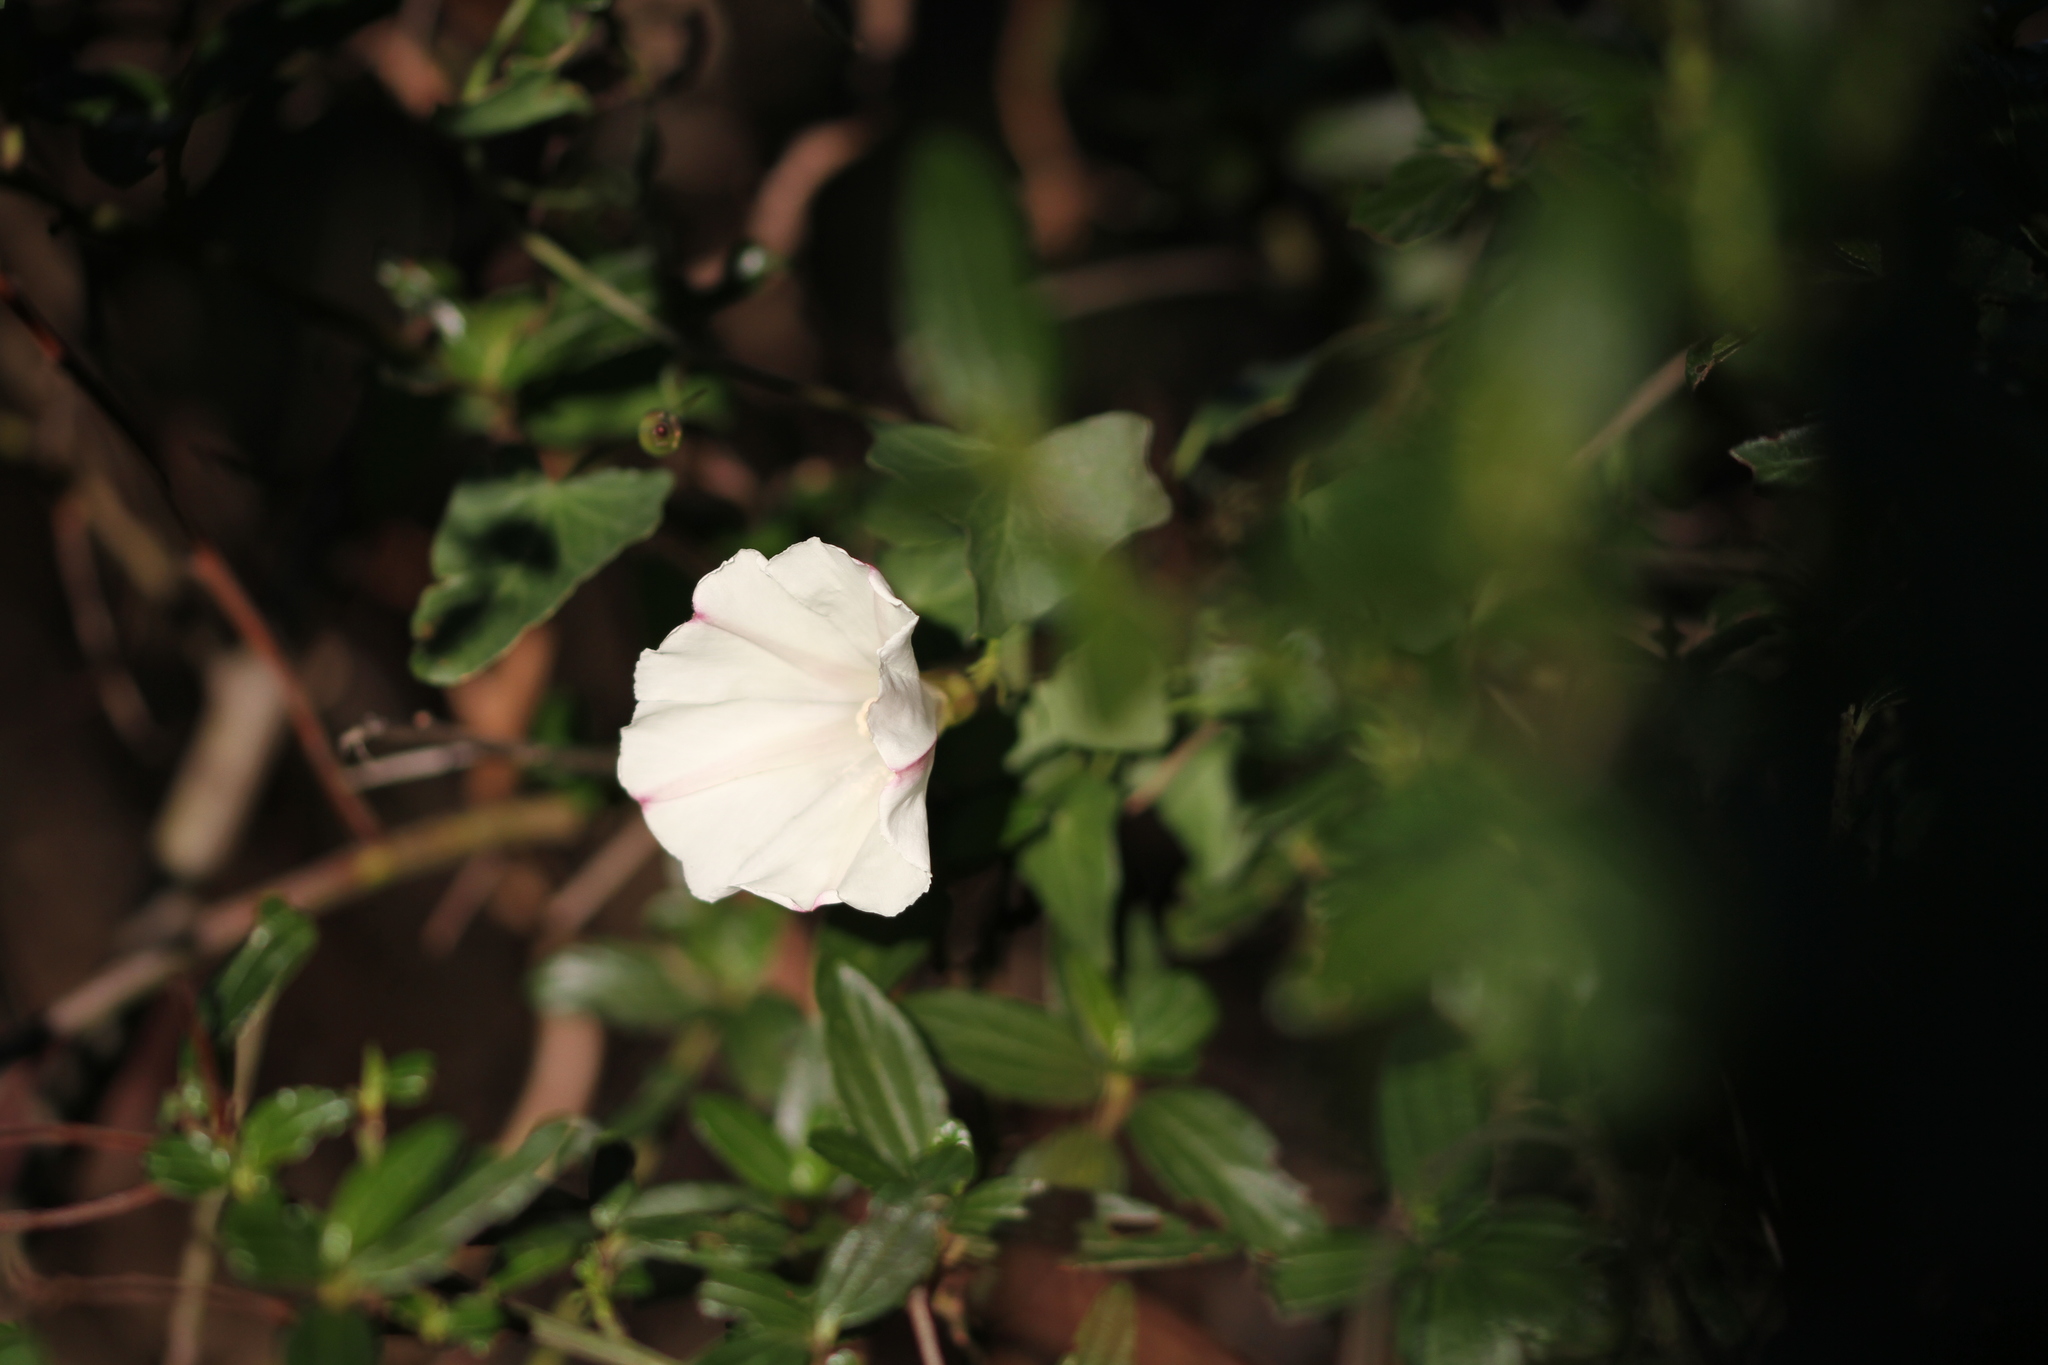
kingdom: Plantae
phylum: Tracheophyta
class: Magnoliopsida
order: Rosales
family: Rhamnaceae
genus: Ceanothus
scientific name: Ceanothus thyrsiflorus
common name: California-lilac
